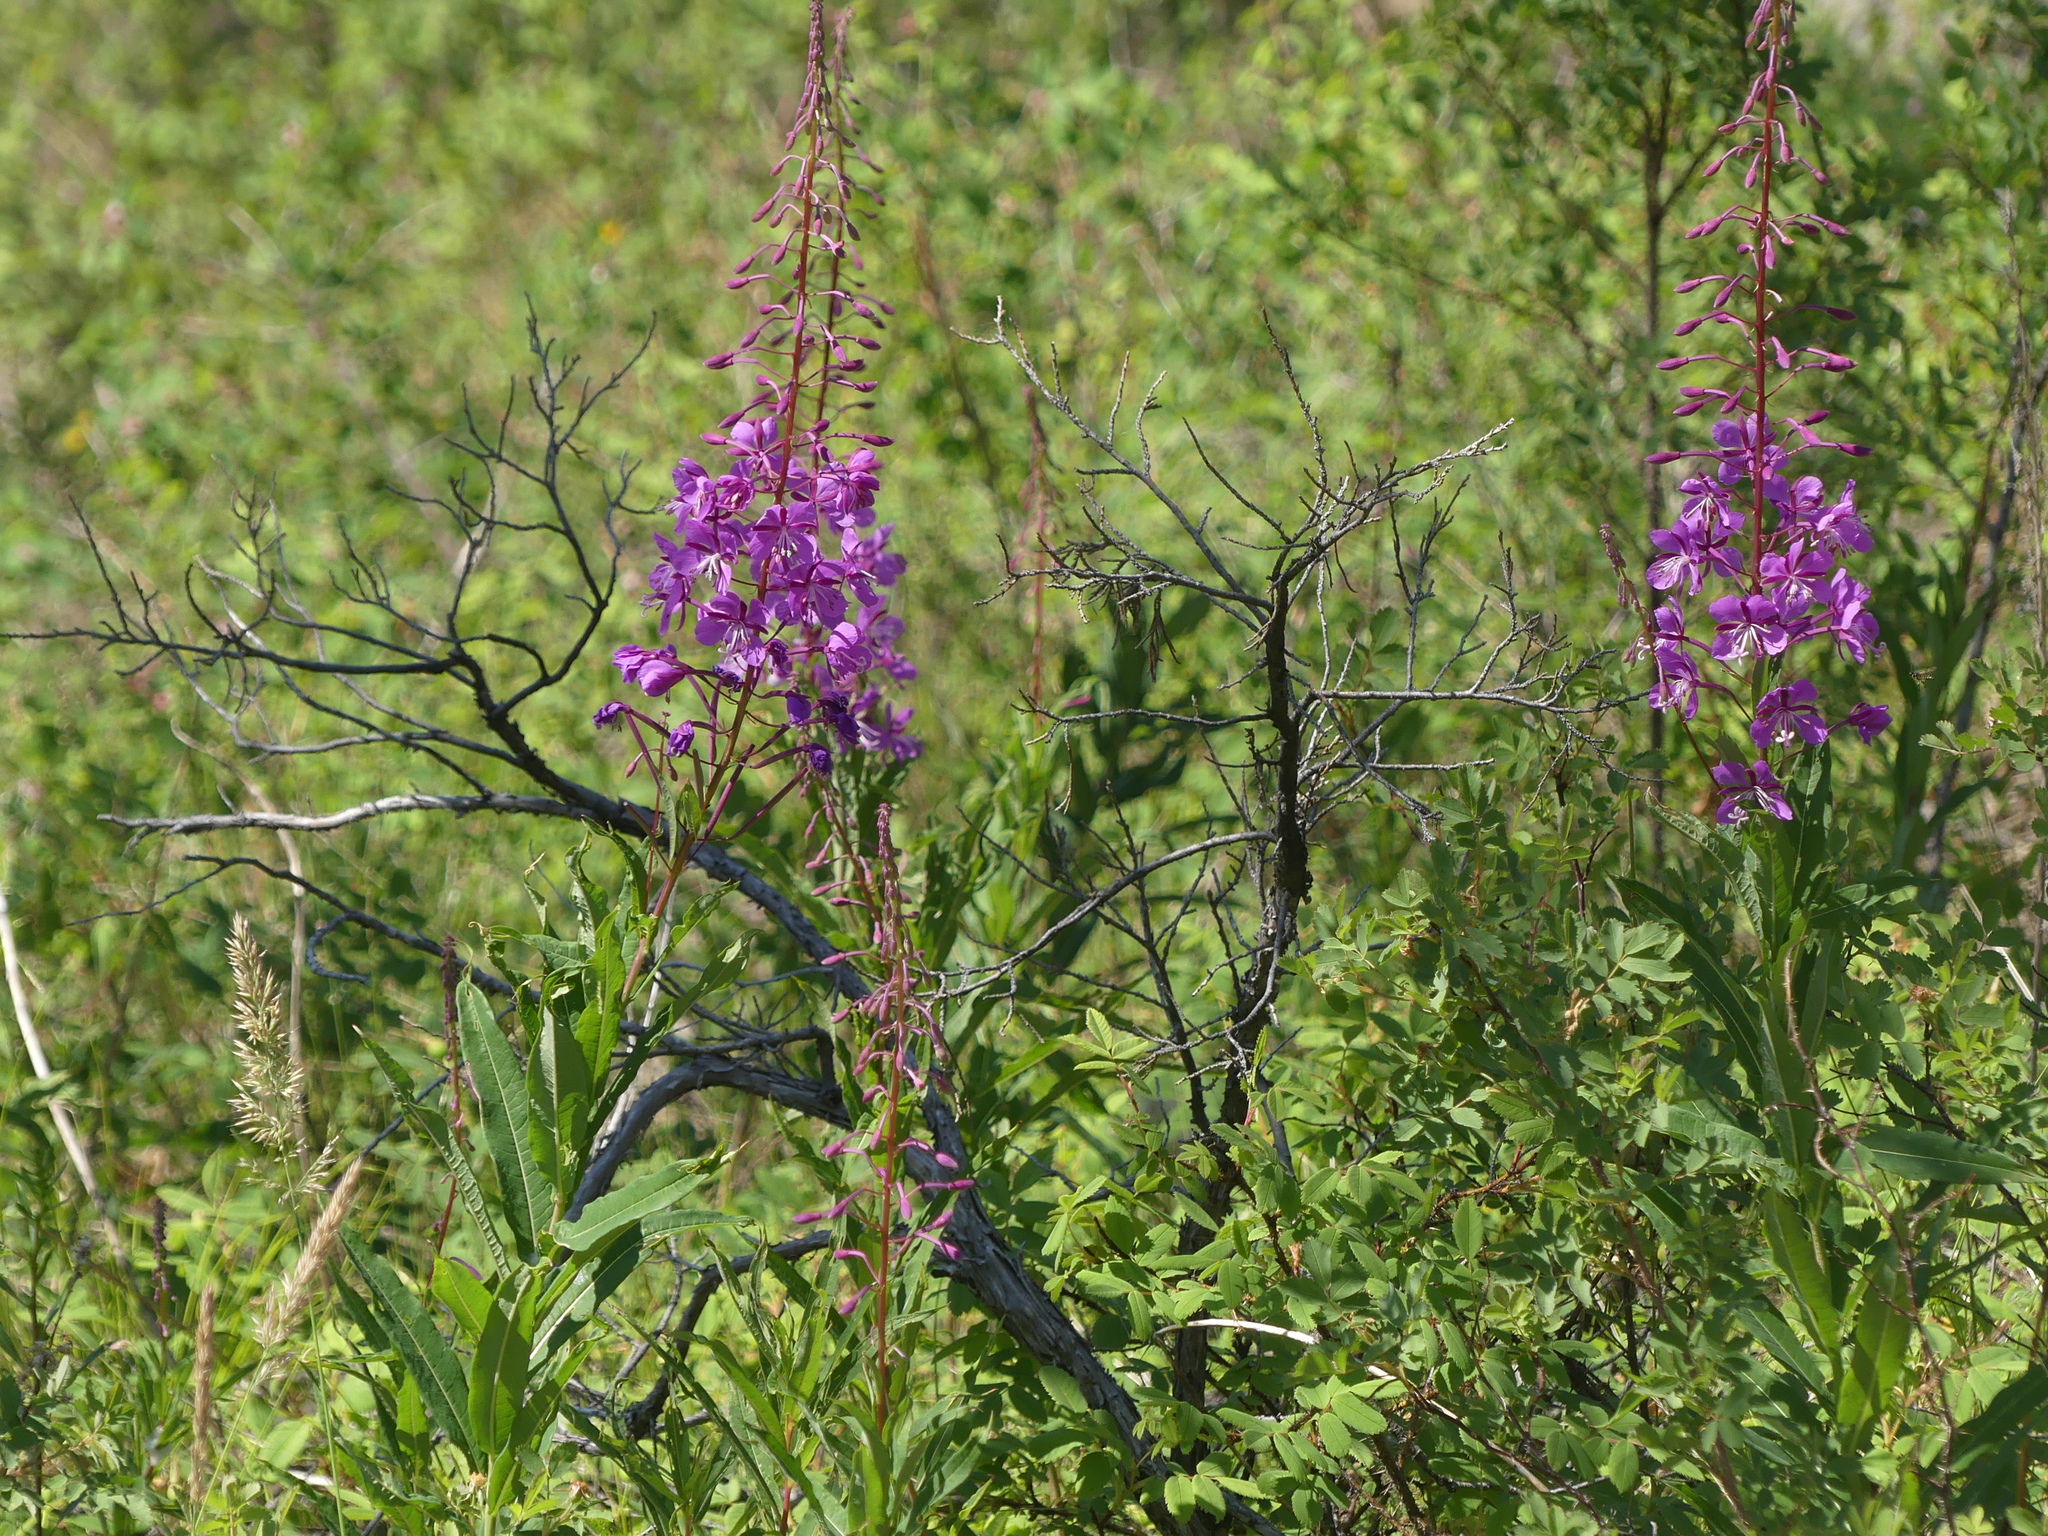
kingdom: Plantae
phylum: Tracheophyta
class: Magnoliopsida
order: Myrtales
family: Onagraceae
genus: Chamaenerion
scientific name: Chamaenerion angustifolium
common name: Fireweed
